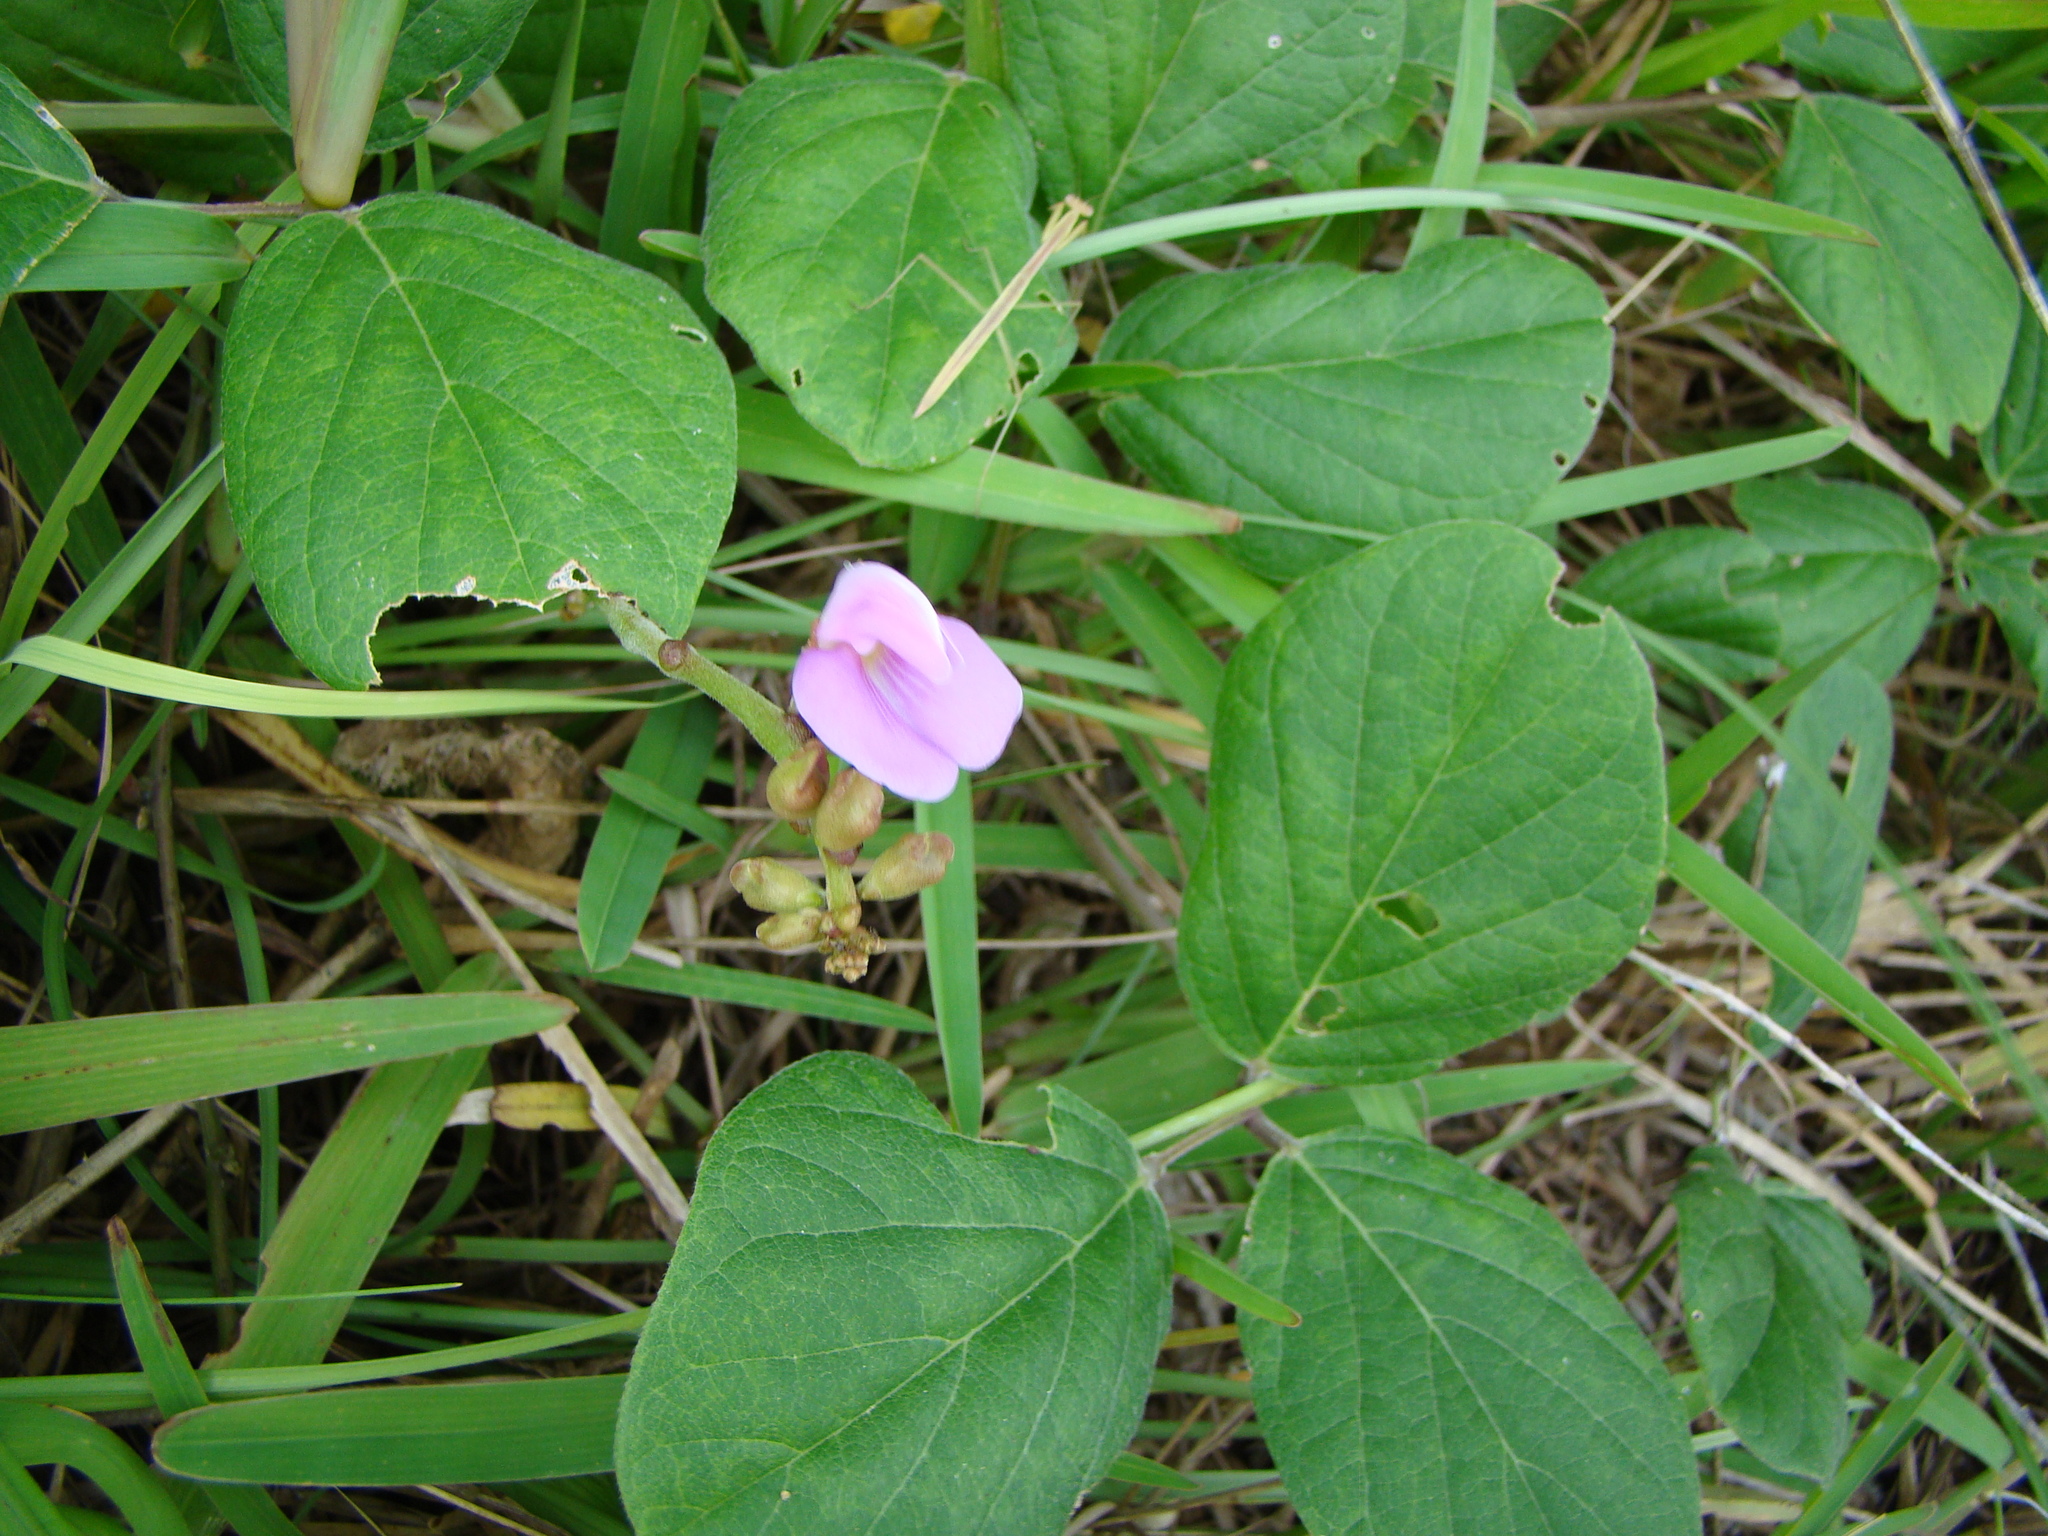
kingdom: Plantae
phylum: Tracheophyta
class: Magnoliopsida
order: Fabales
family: Fabaceae
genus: Canavalia
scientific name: Canavalia rosea
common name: Beach-bean
